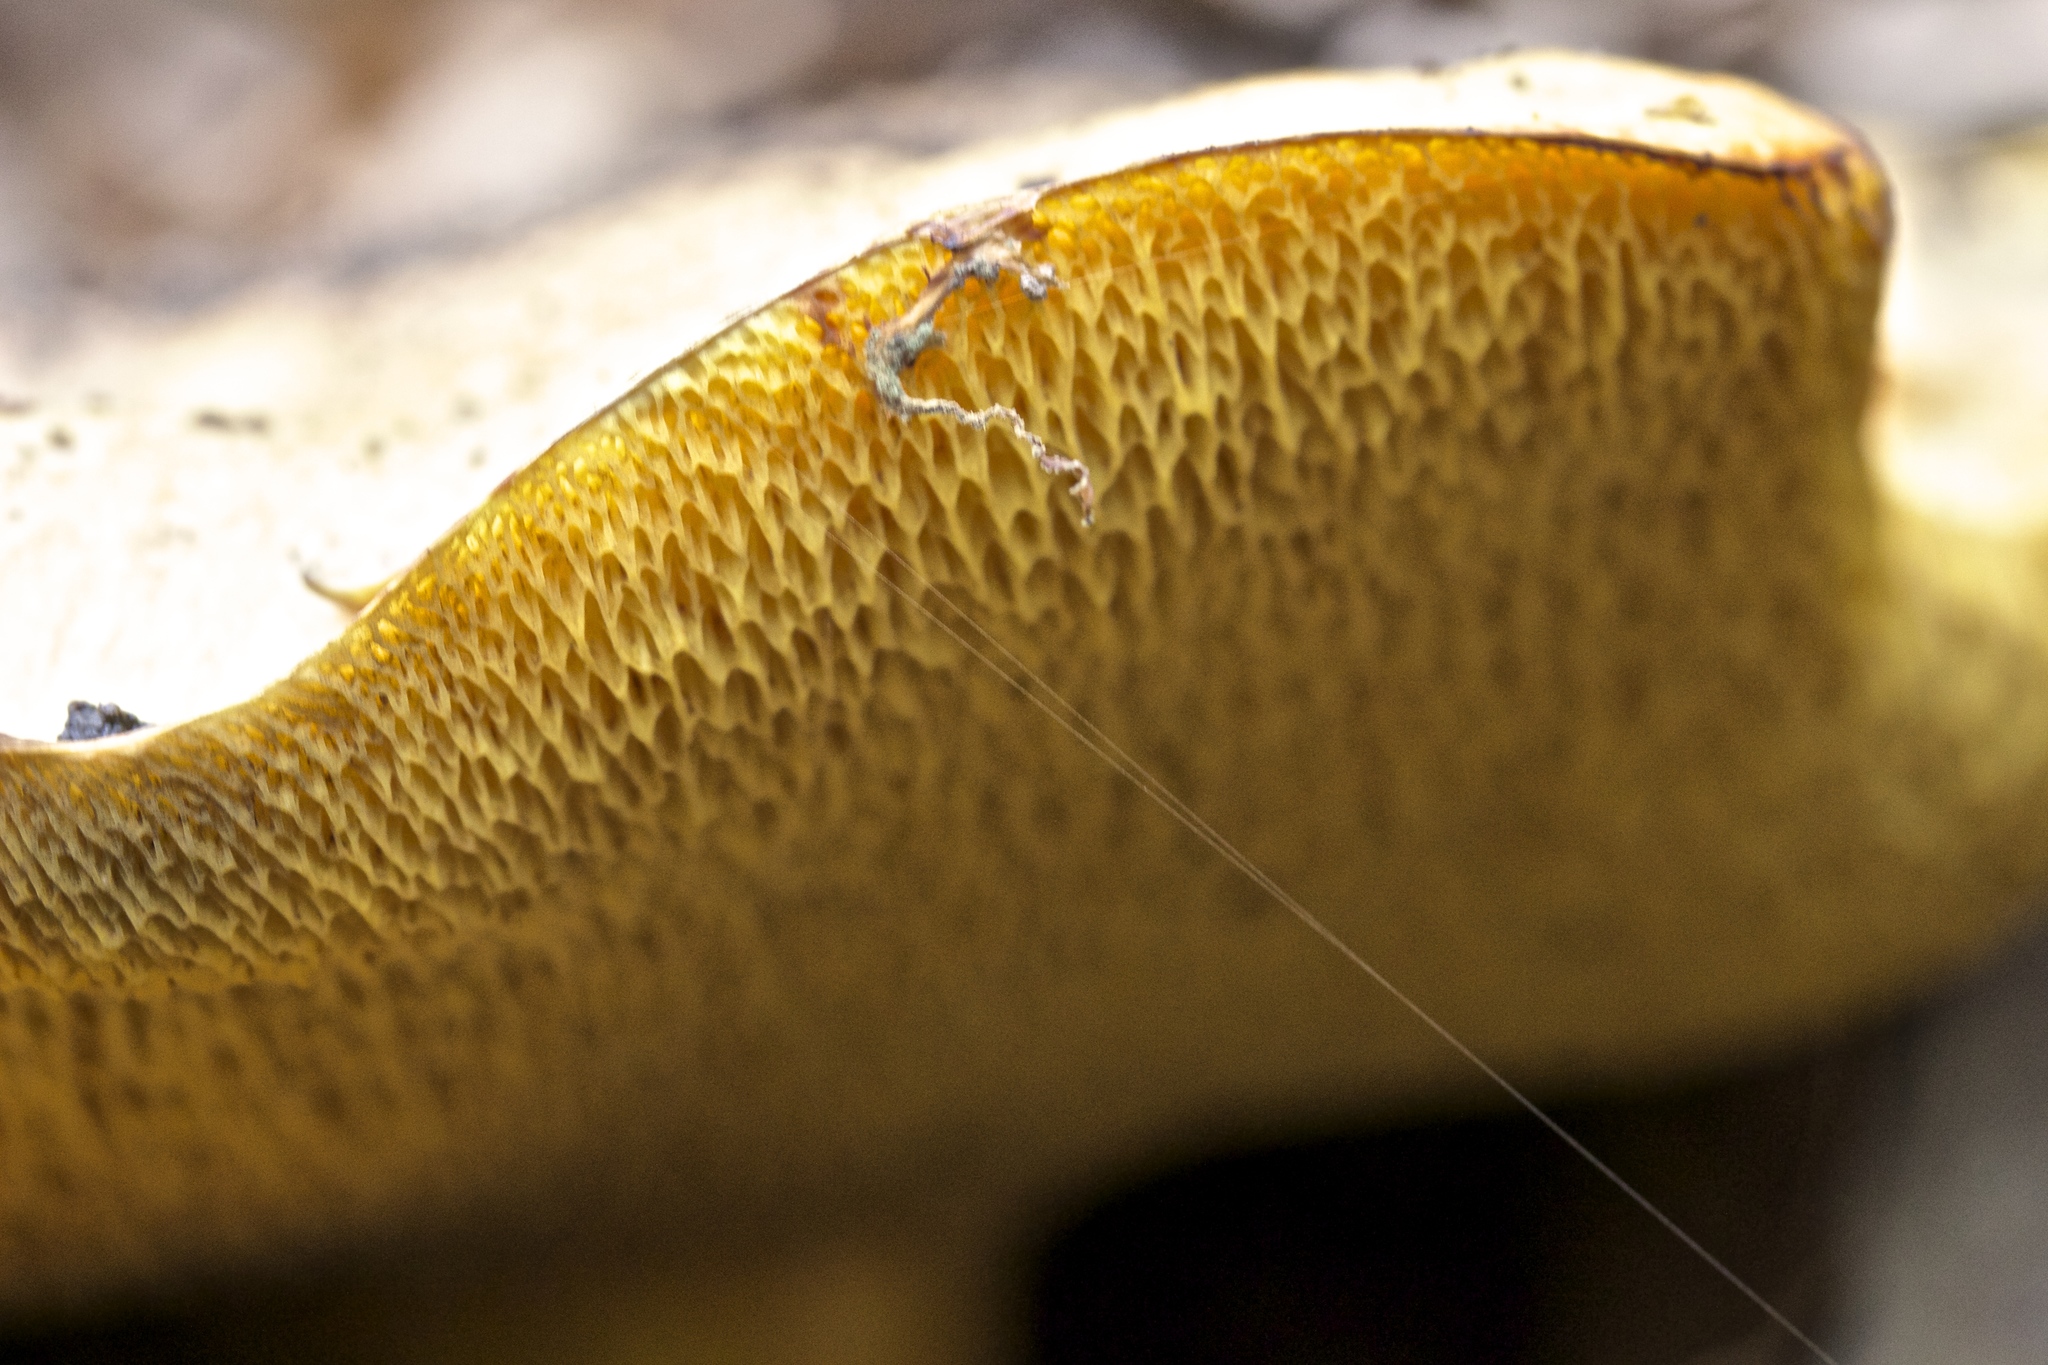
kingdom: Fungi
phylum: Basidiomycota
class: Agaricomycetes
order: Boletales
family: Suillaceae
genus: Suillus
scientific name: Suillus caerulescens
